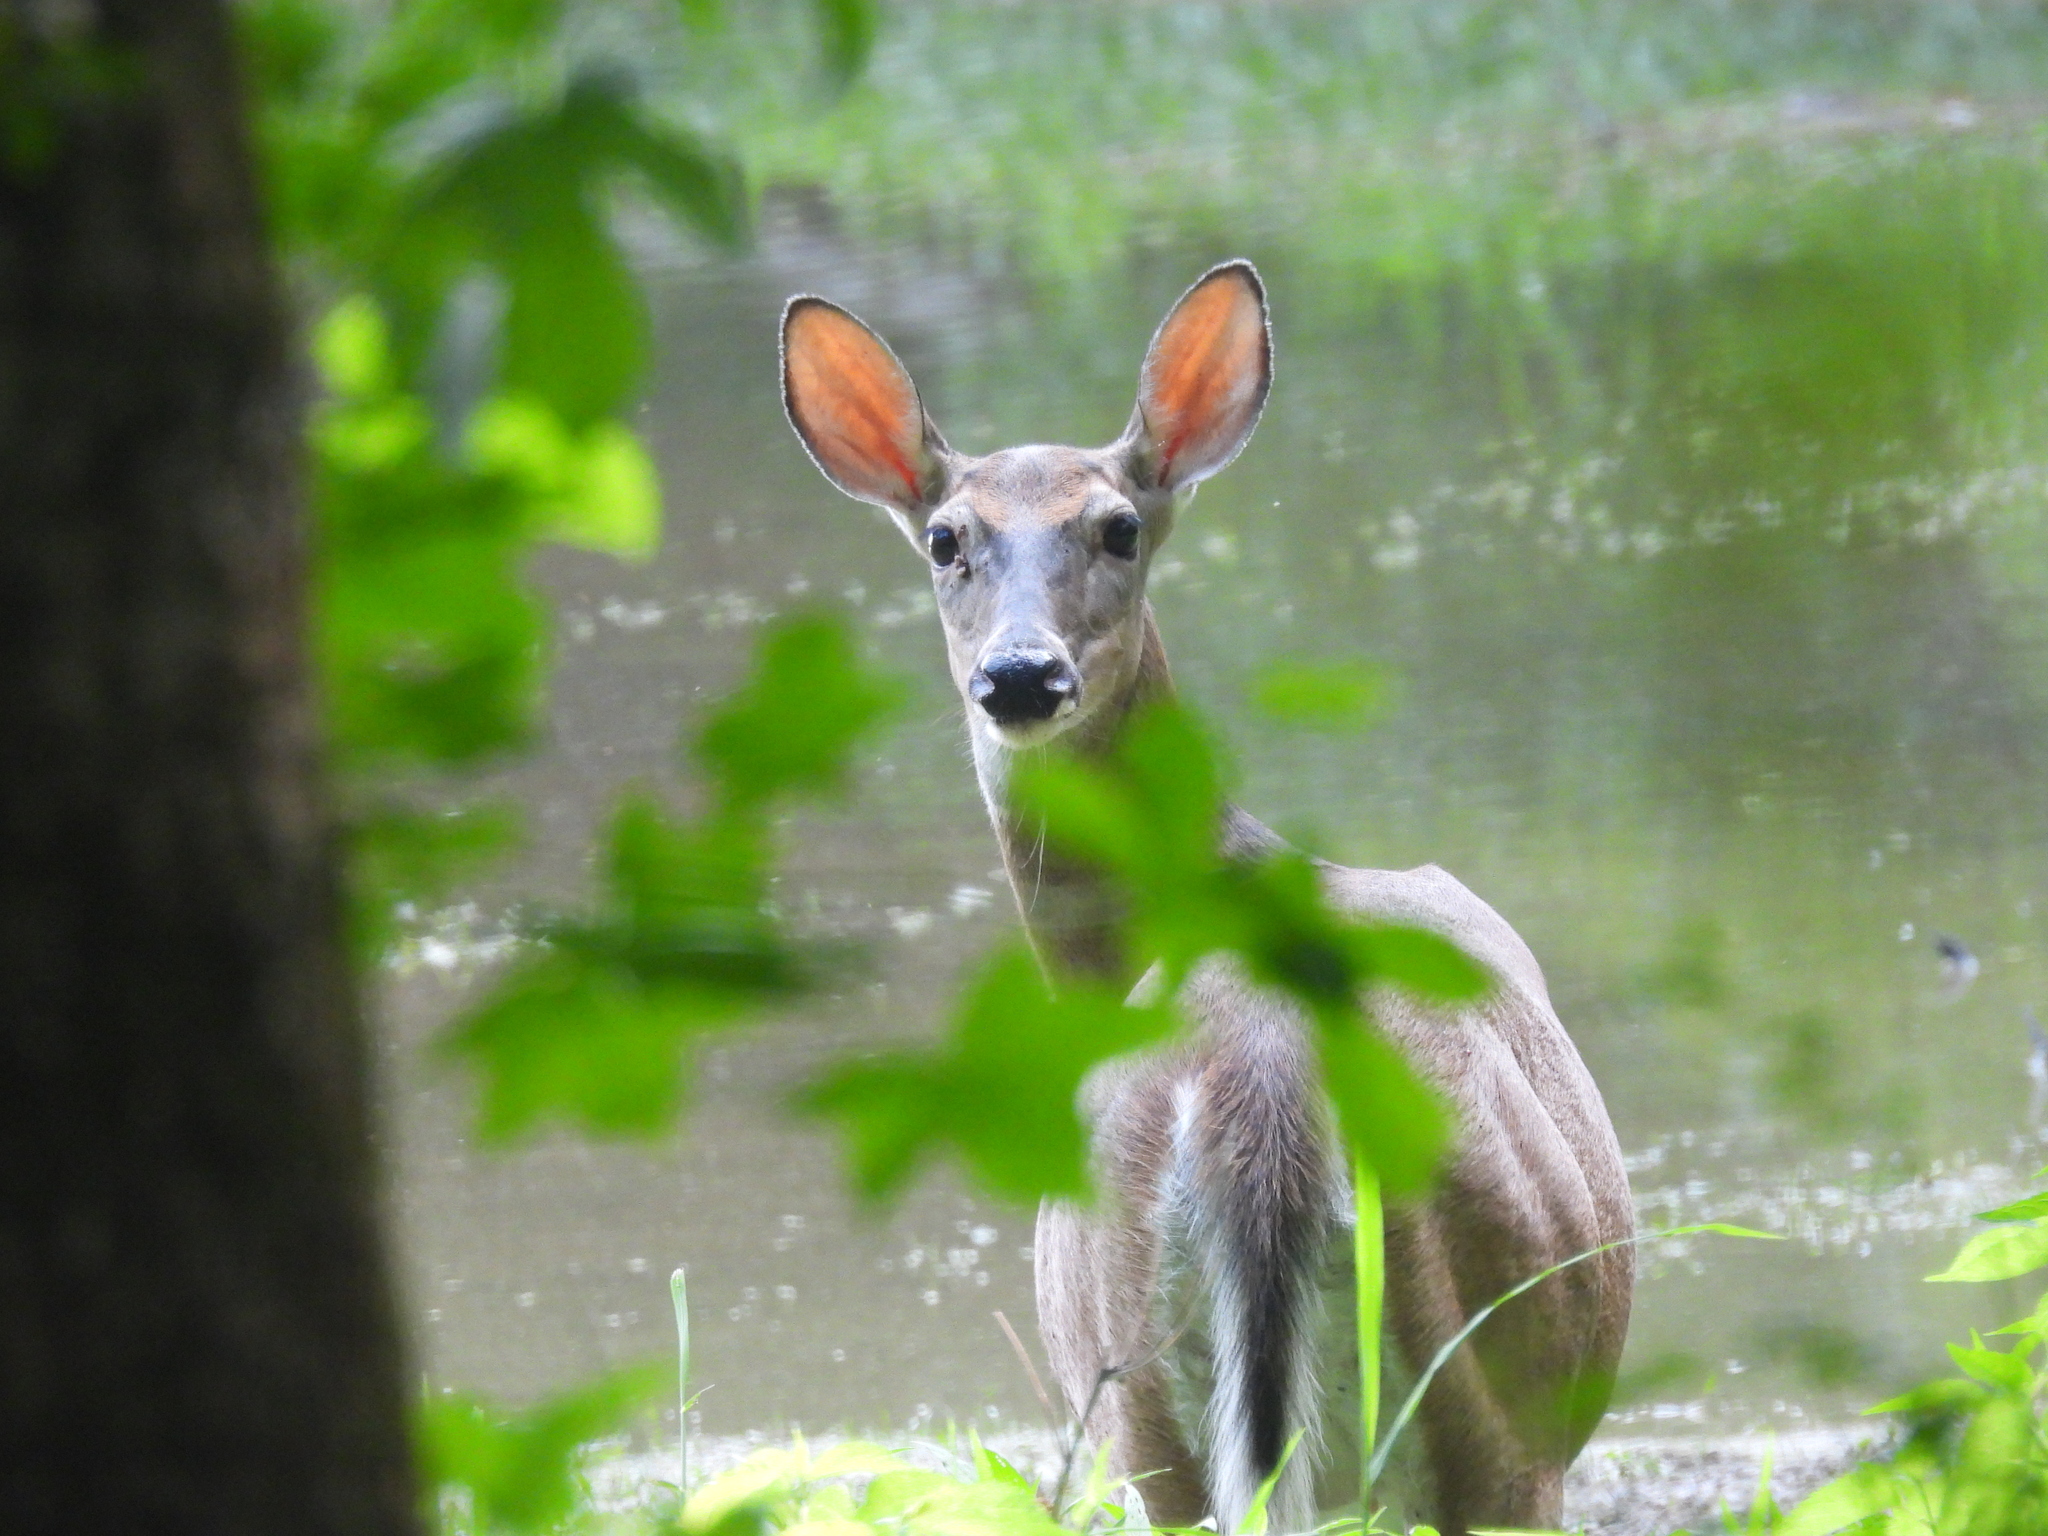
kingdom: Animalia
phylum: Chordata
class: Mammalia
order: Artiodactyla
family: Cervidae
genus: Odocoileus
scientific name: Odocoileus virginianus
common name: White-tailed deer
